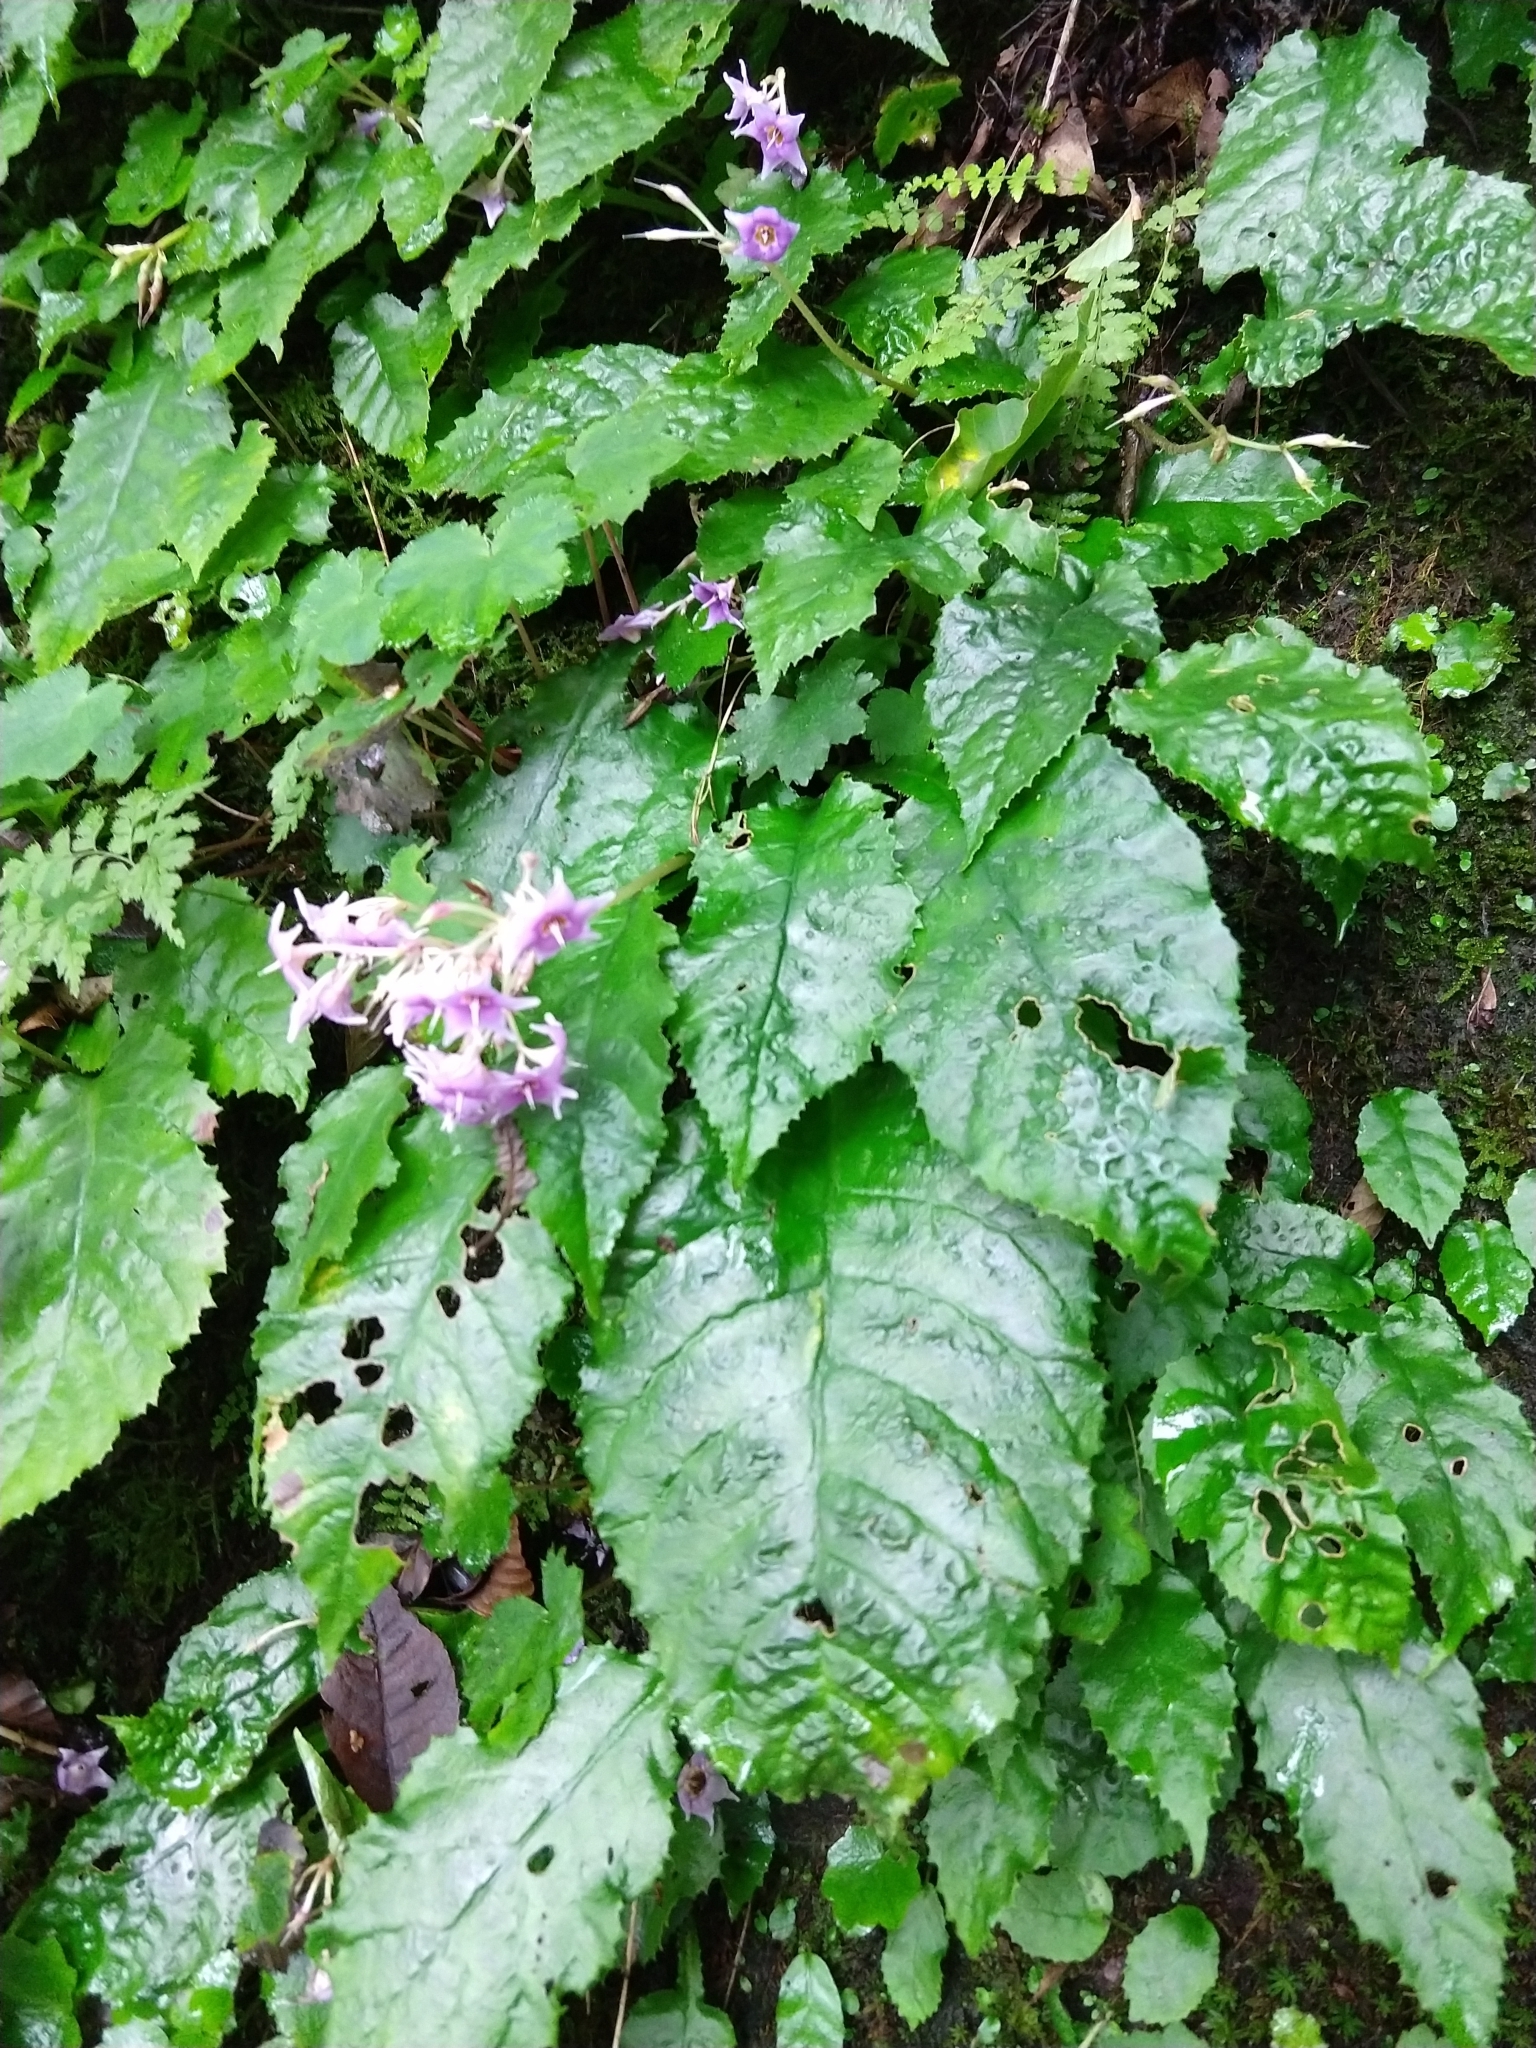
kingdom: Plantae
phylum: Tracheophyta
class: Magnoliopsida
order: Lamiales
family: Gesneriaceae
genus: Conandron
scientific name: Conandron ramondioides
